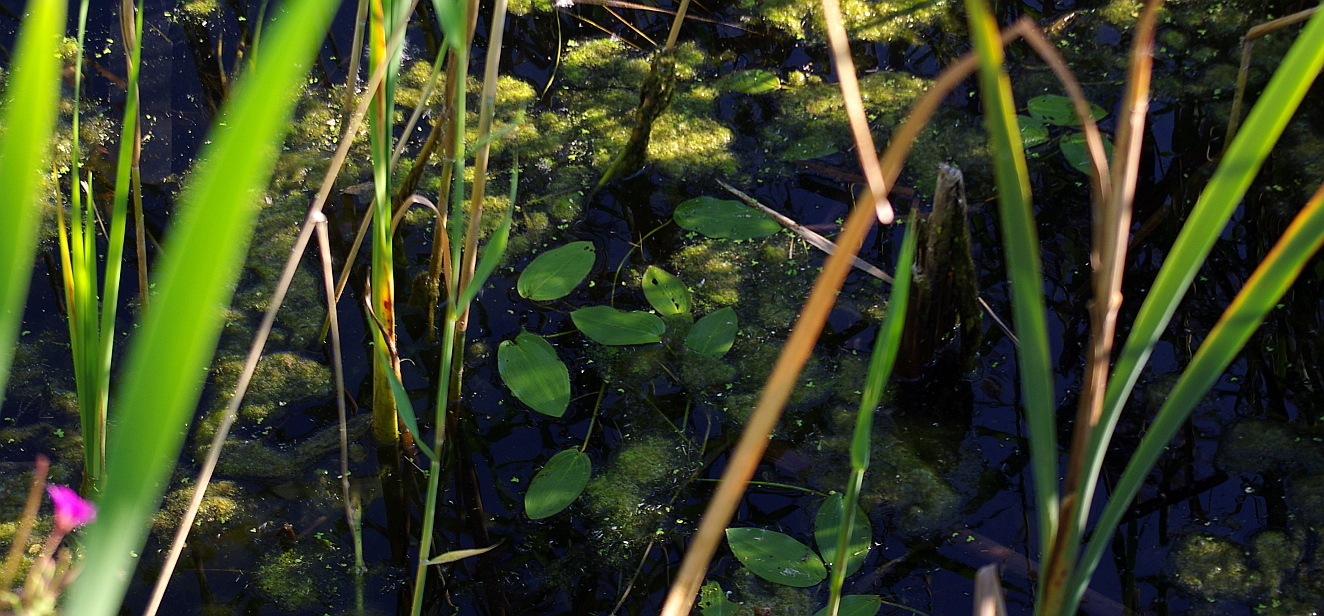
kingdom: Plantae
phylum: Tracheophyta
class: Liliopsida
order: Alismatales
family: Potamogetonaceae
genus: Potamogeton
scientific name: Potamogeton natans
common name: Broad-leaved pondweed
